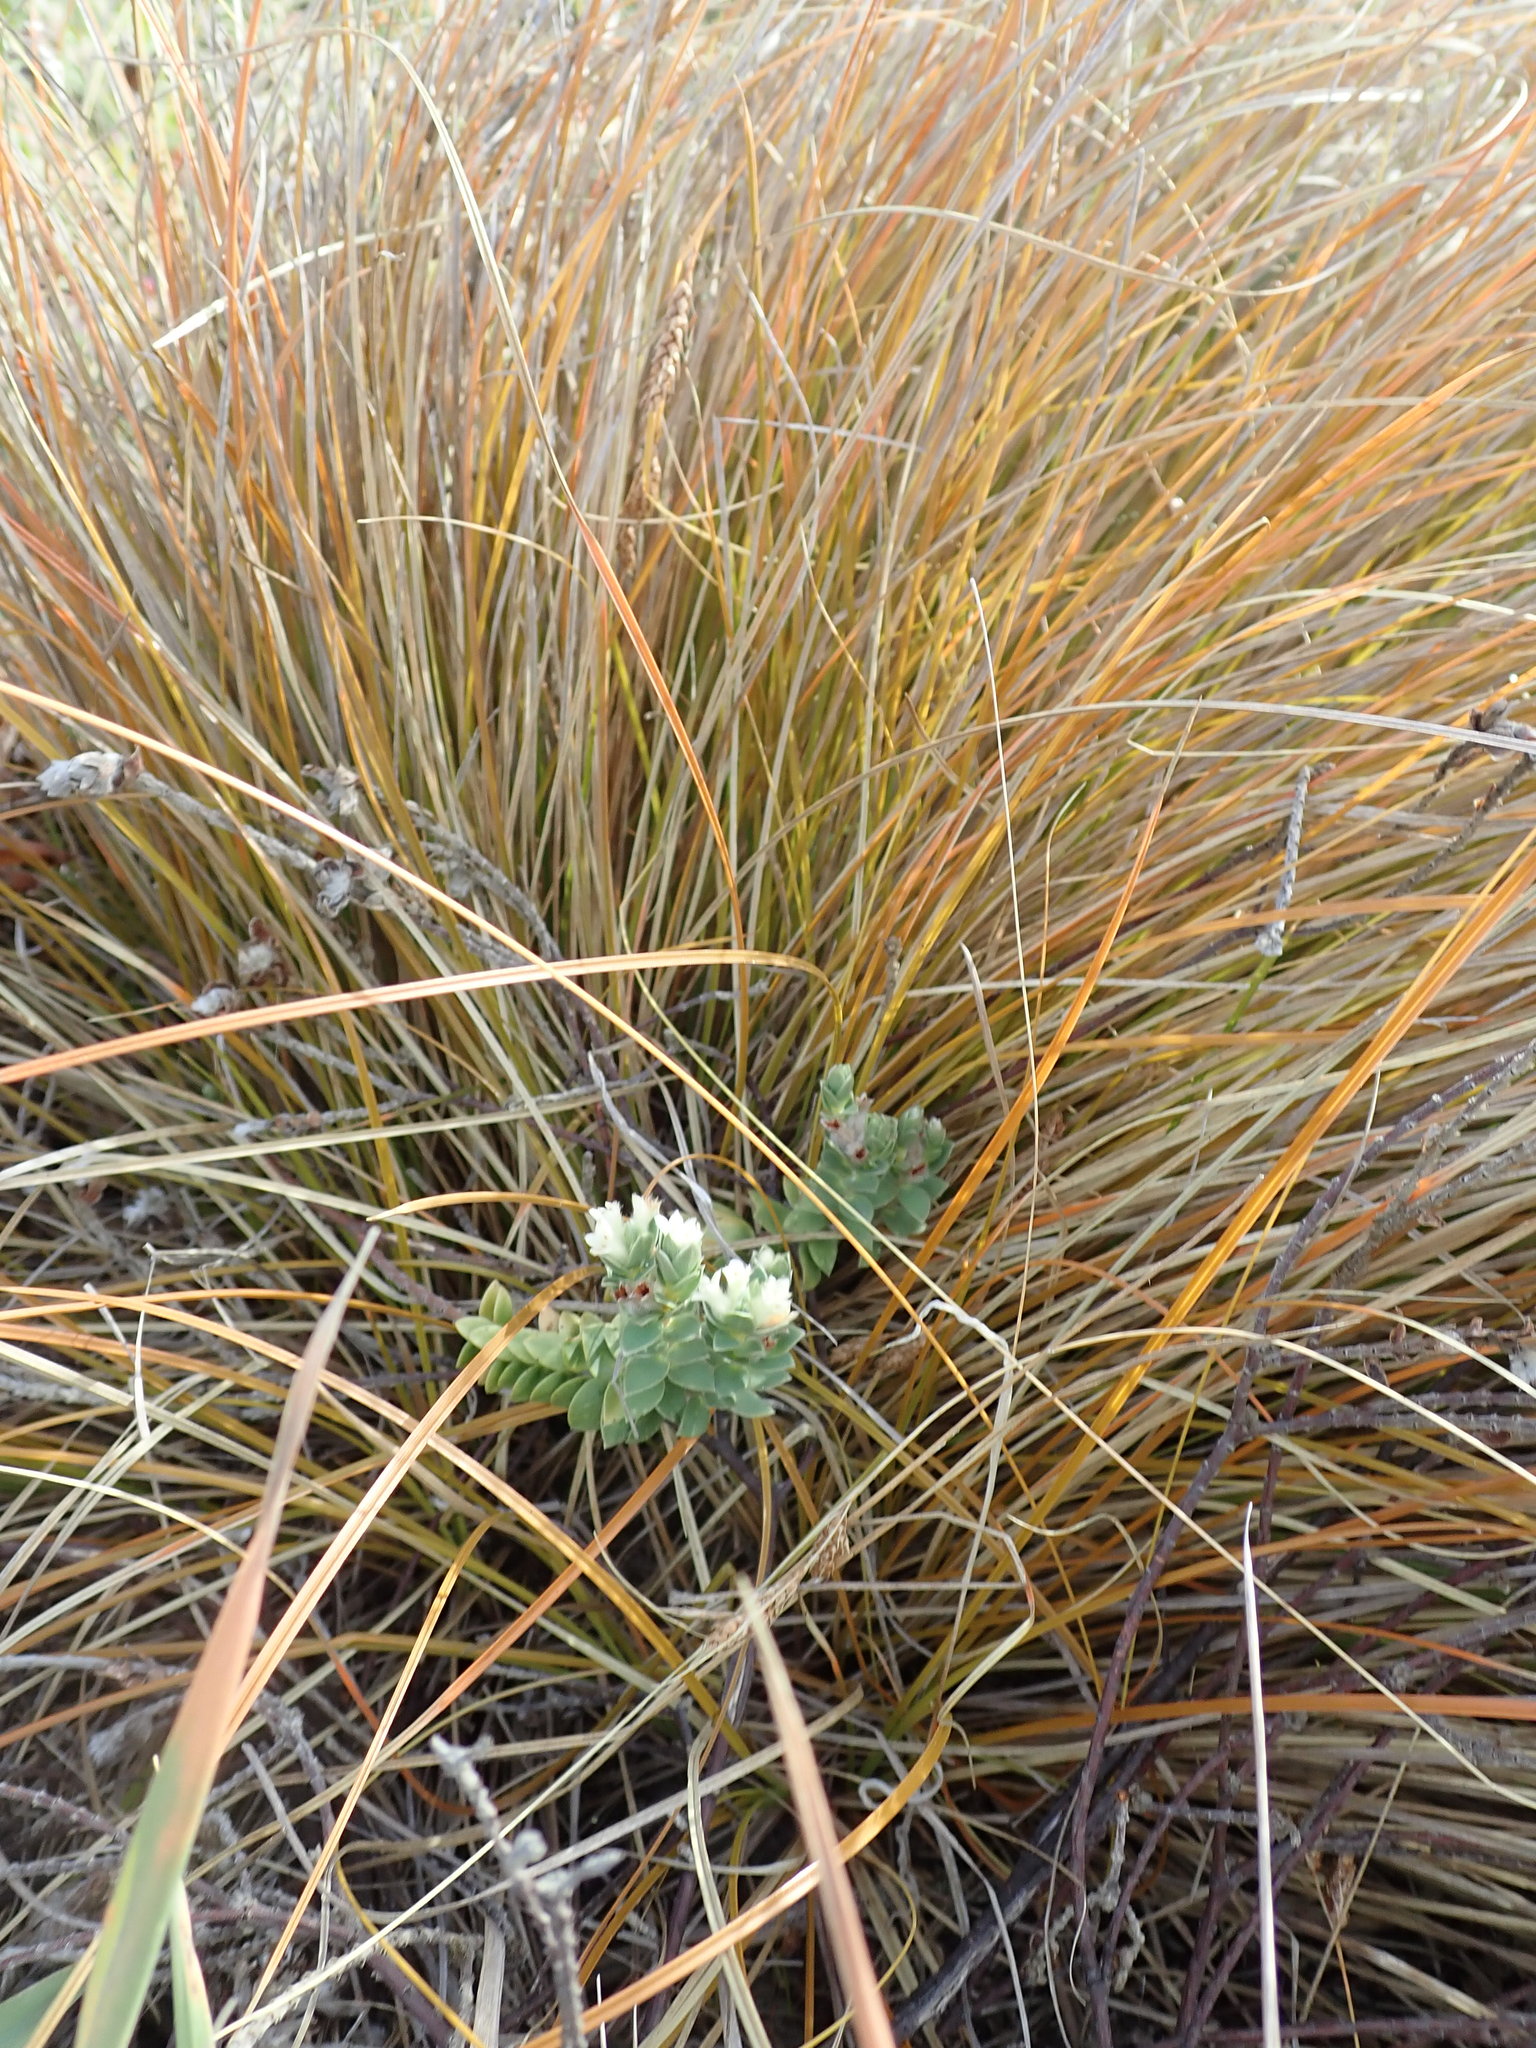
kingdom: Plantae
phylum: Tracheophyta
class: Magnoliopsida
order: Malvales
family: Thymelaeaceae
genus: Pimelea
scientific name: Pimelea villosa
